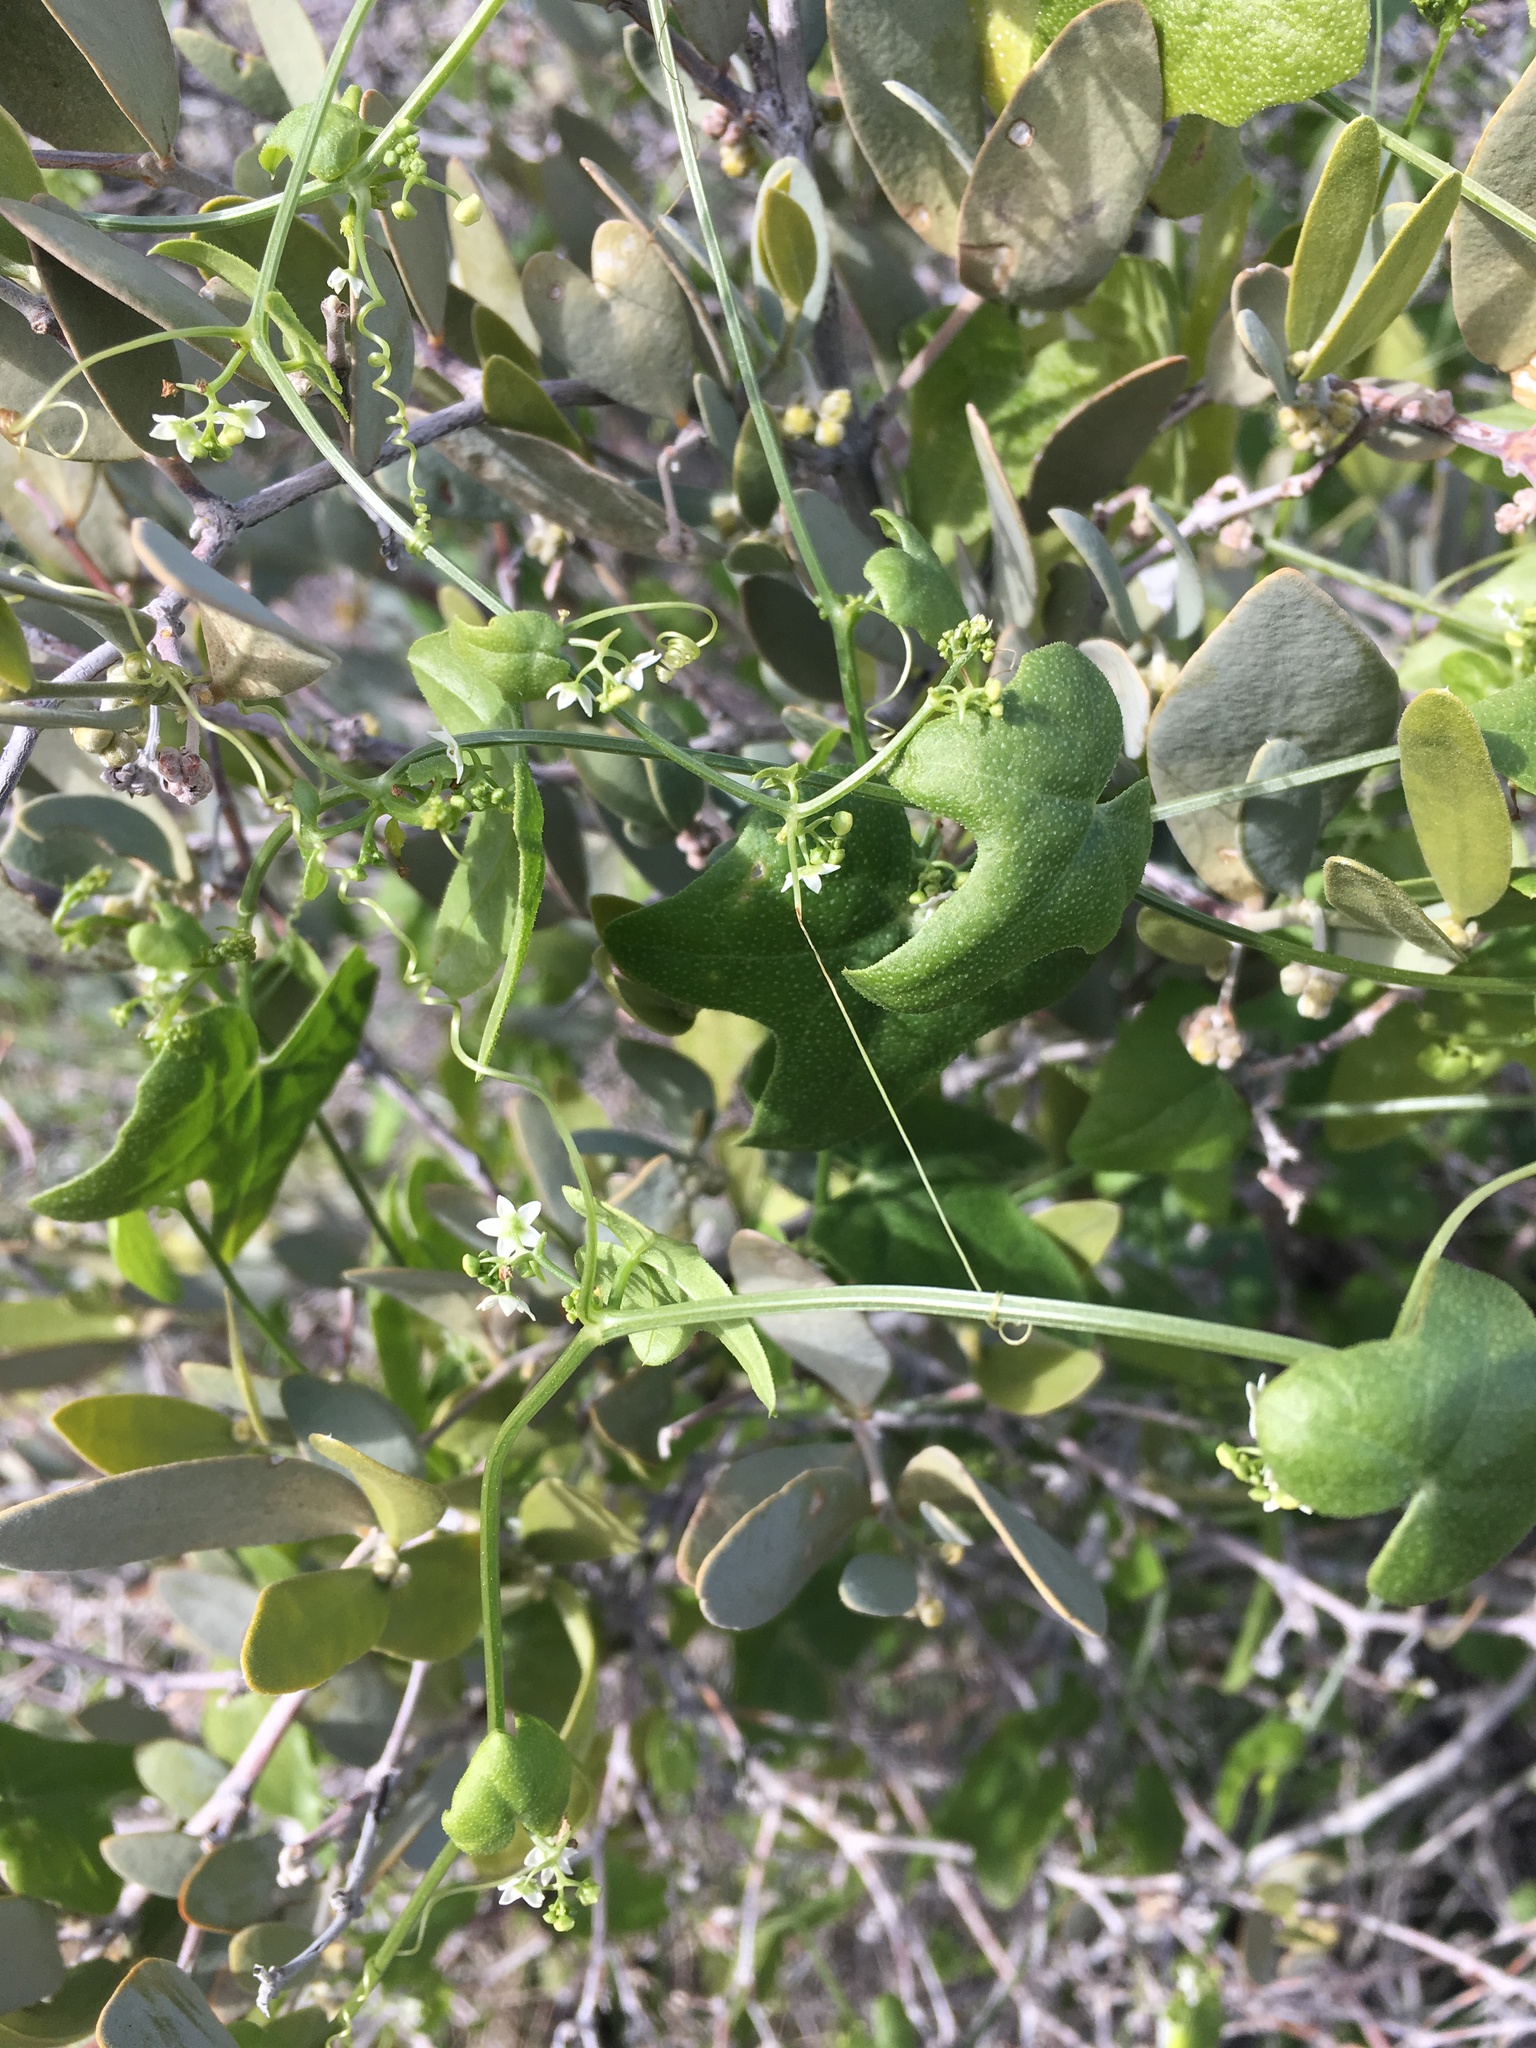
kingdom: Plantae
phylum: Tracheophyta
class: Magnoliopsida
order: Cucurbitales
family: Cucurbitaceae
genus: Echinopepon
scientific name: Echinopepon bigelovii
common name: Desert starvine
